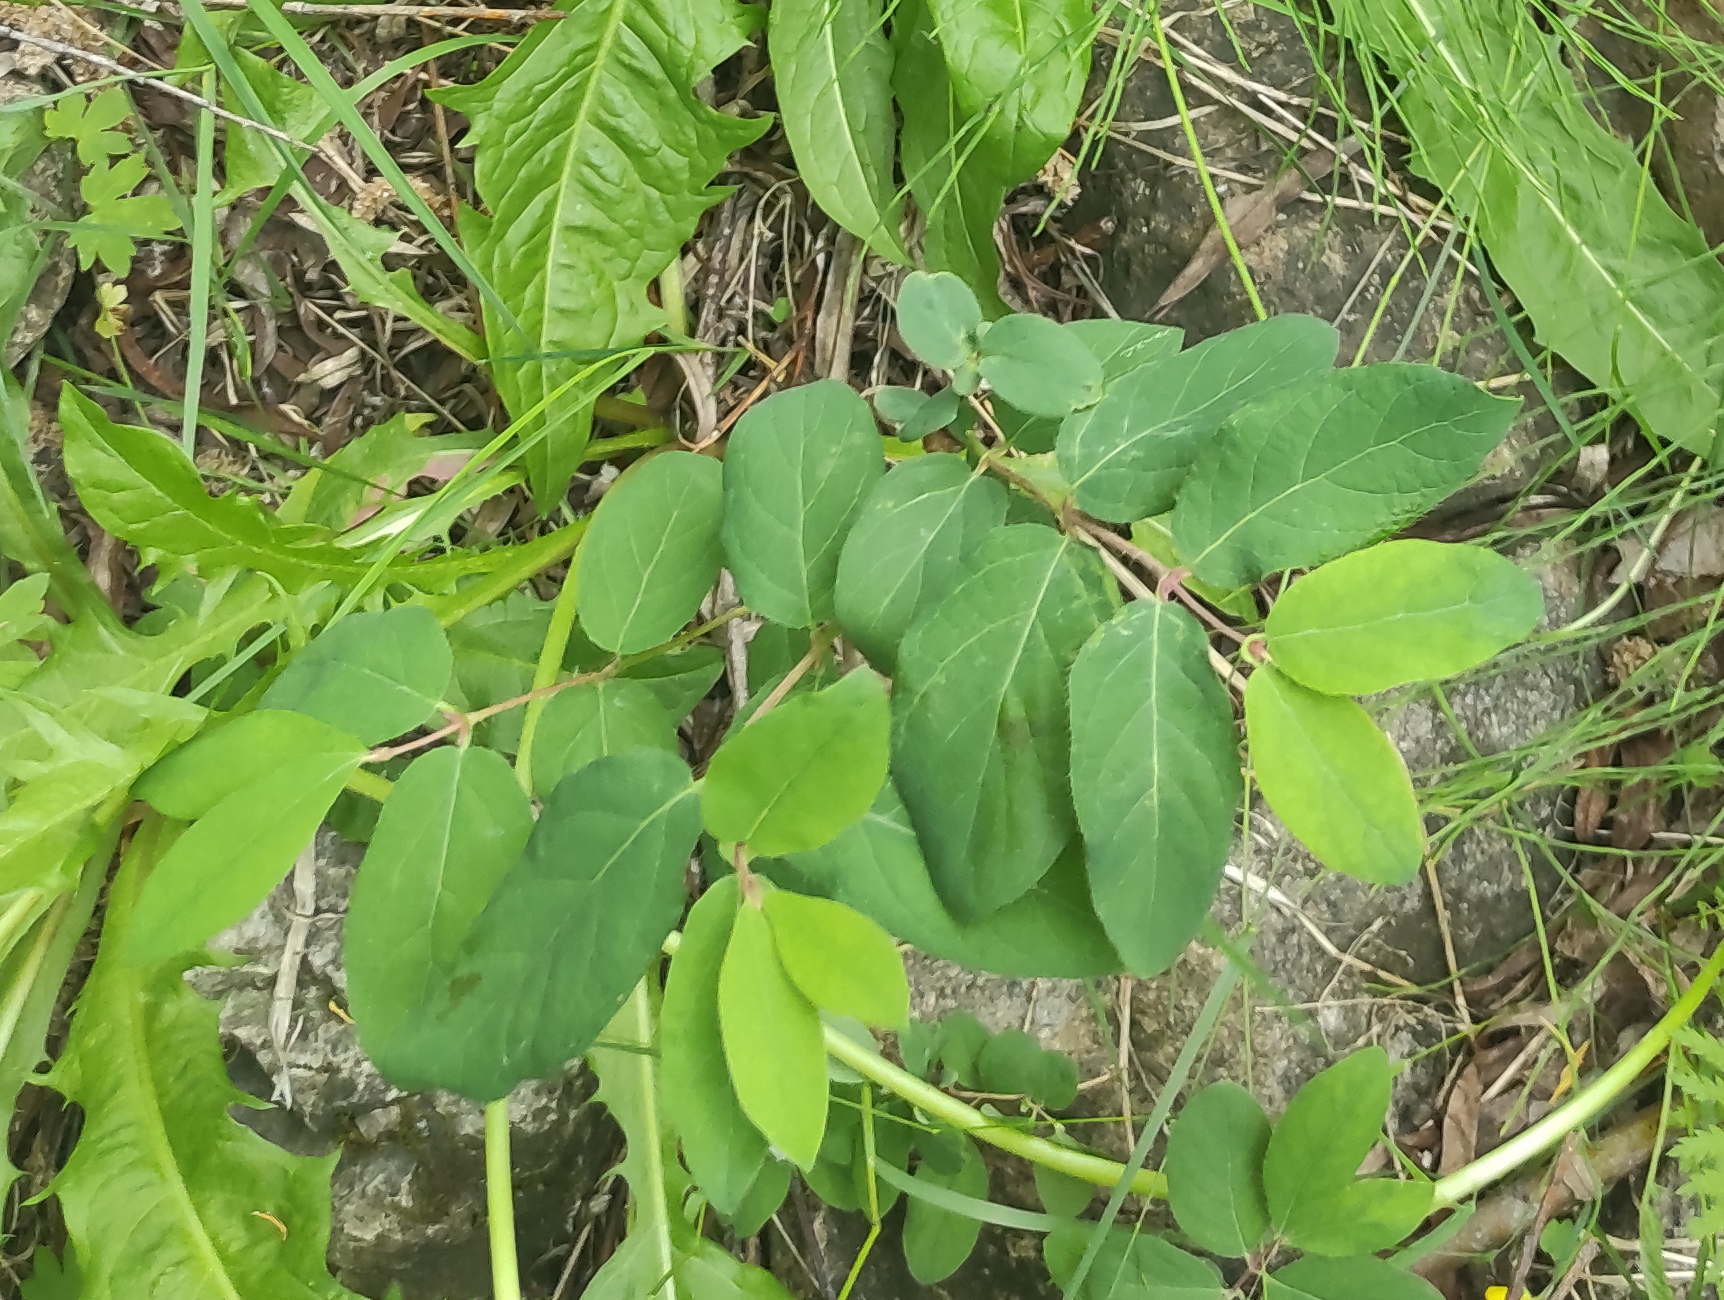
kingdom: Plantae
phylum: Tracheophyta
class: Magnoliopsida
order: Dipsacales
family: Caprifoliaceae
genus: Lonicera
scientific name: Lonicera caerulea
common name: Blue honeysuckle
